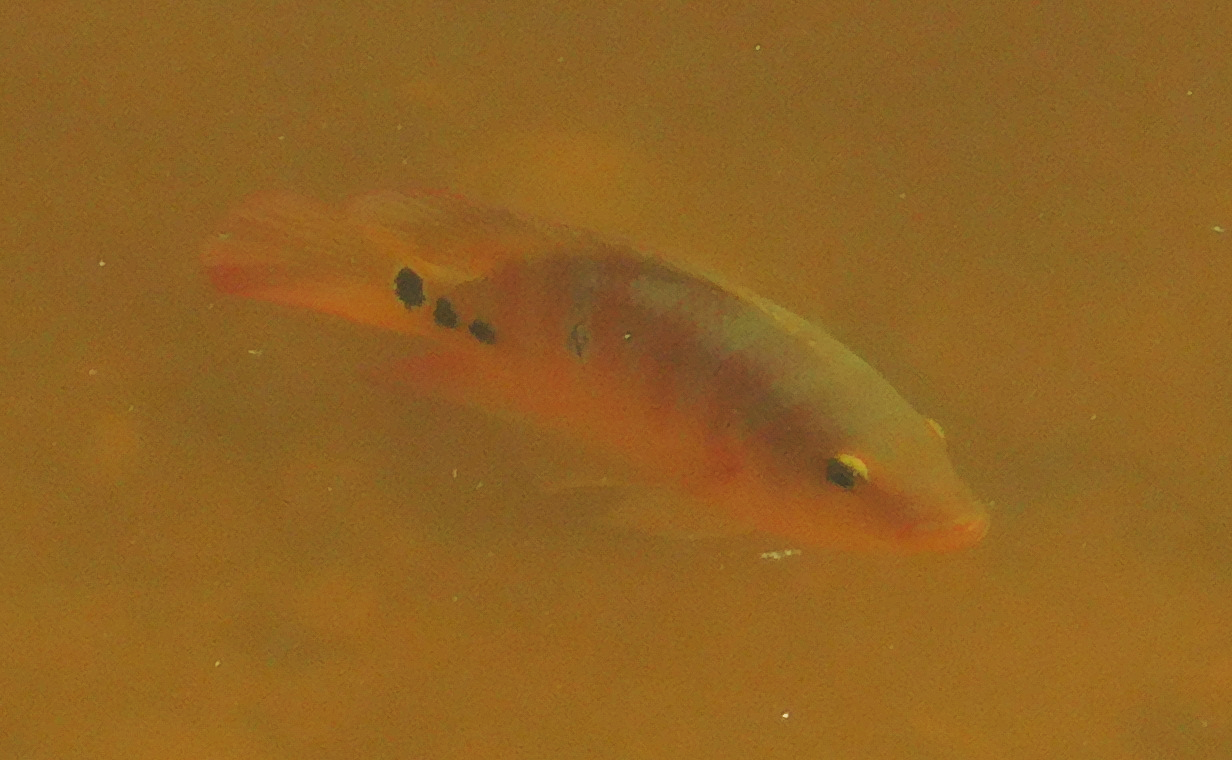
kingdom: Animalia
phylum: Chordata
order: Perciformes
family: Cichlidae
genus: Mayaheros
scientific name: Mayaheros urophthalmus
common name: Mayan cichlid
